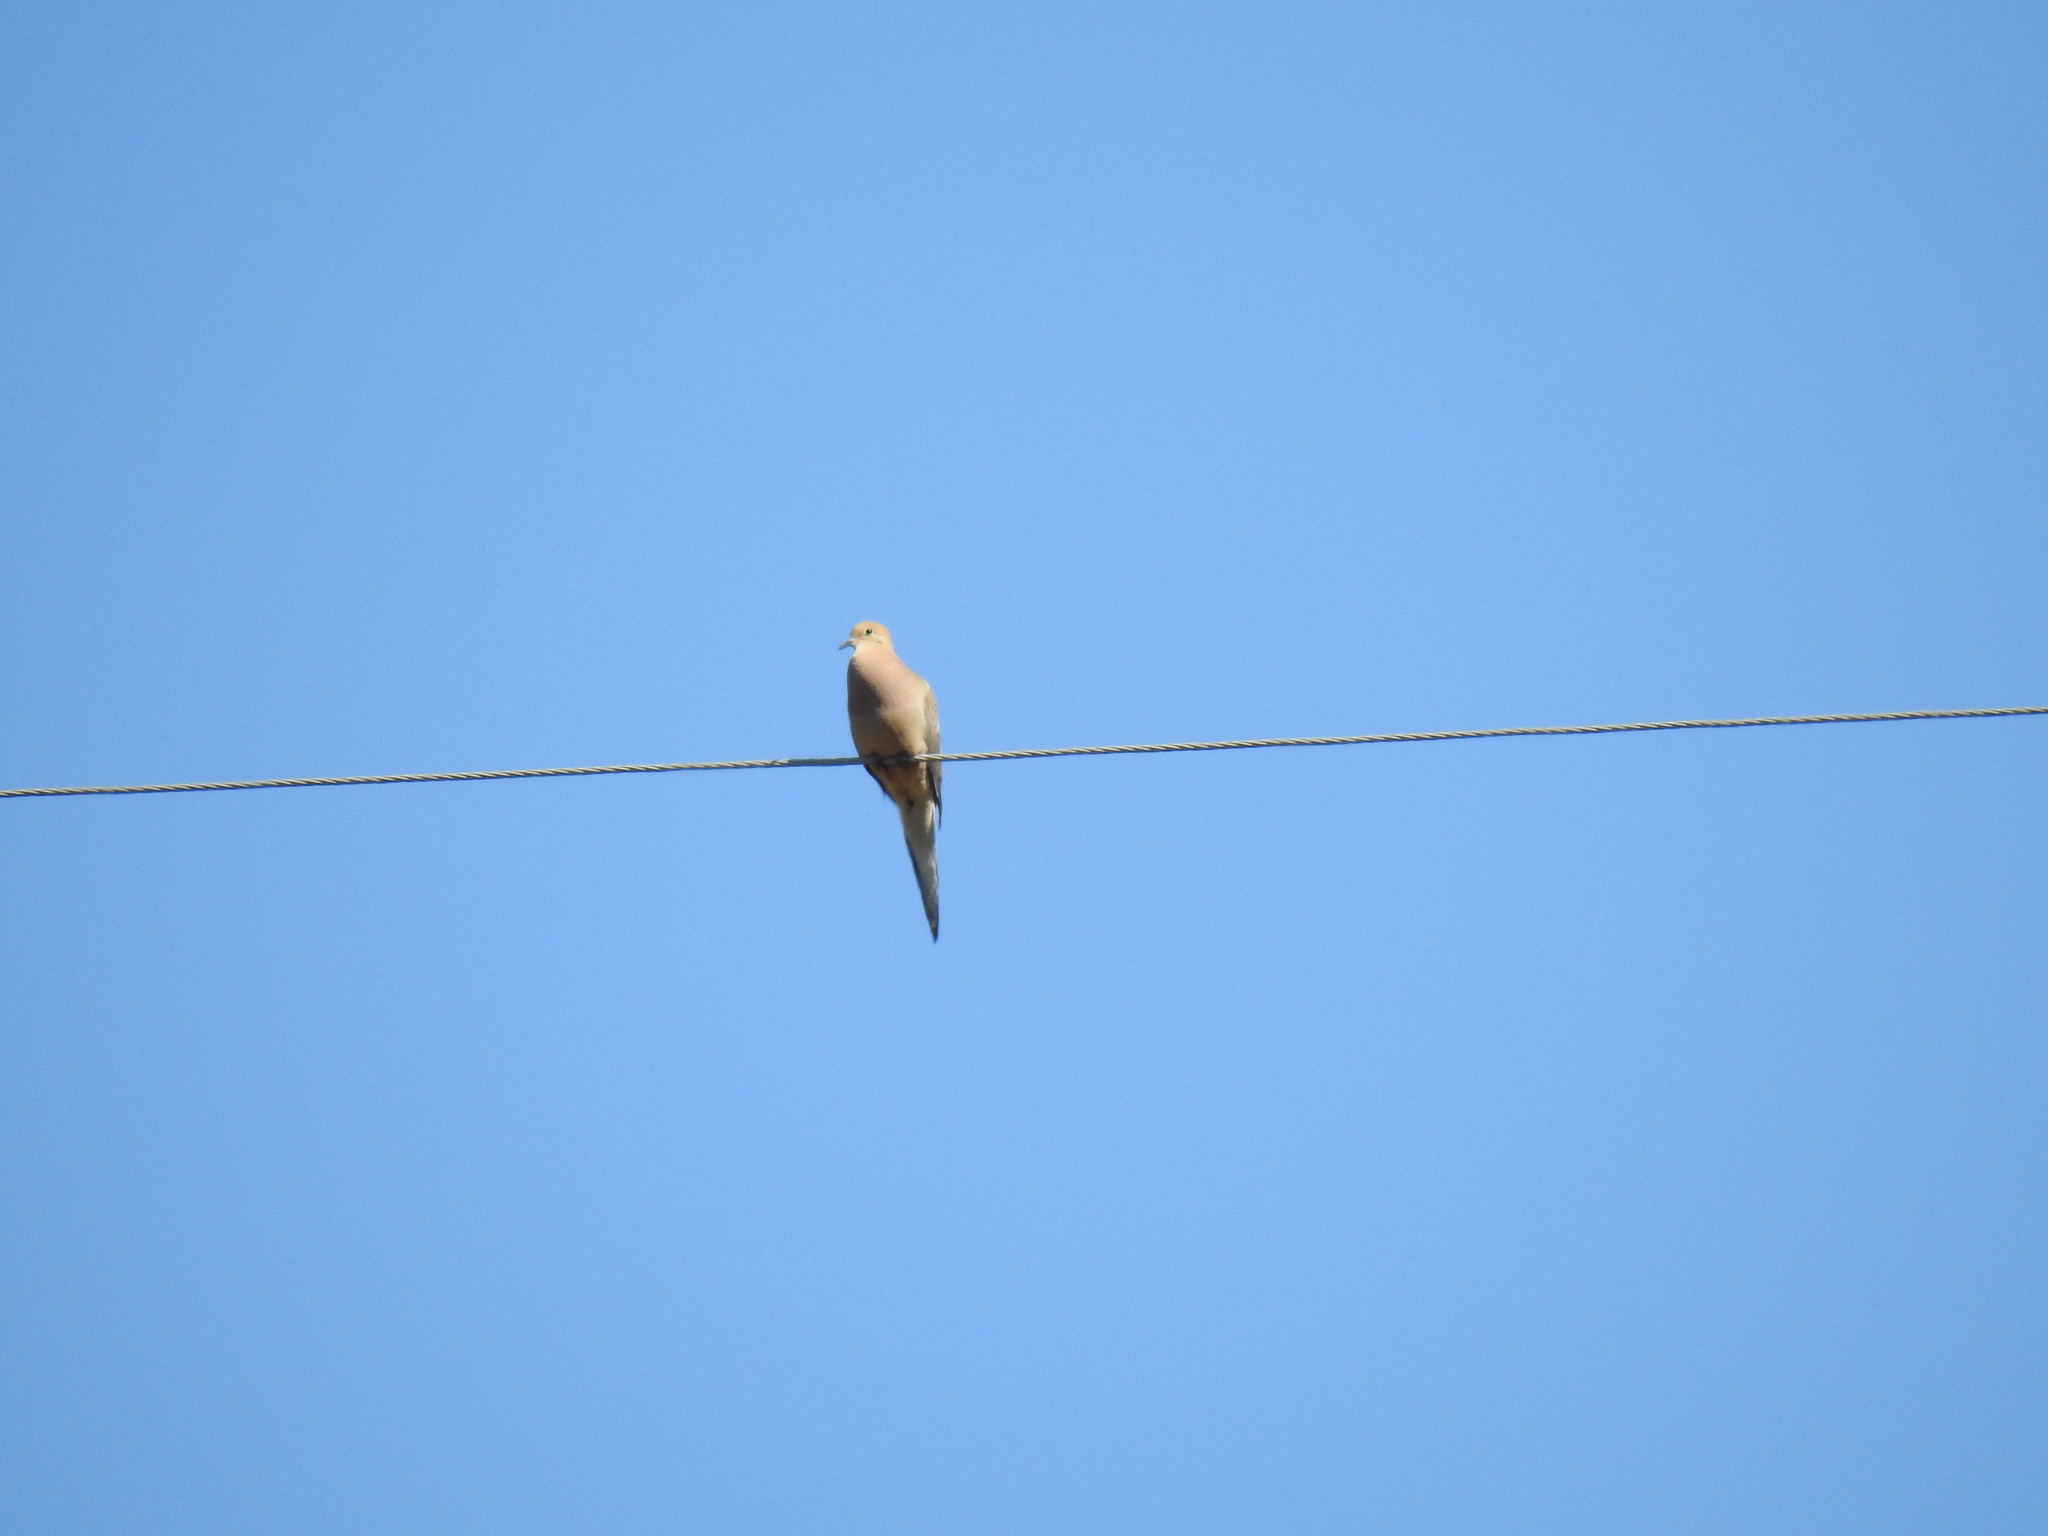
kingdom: Animalia
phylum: Chordata
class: Aves
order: Columbiformes
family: Columbidae
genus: Zenaida
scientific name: Zenaida macroura
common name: Mourning dove
